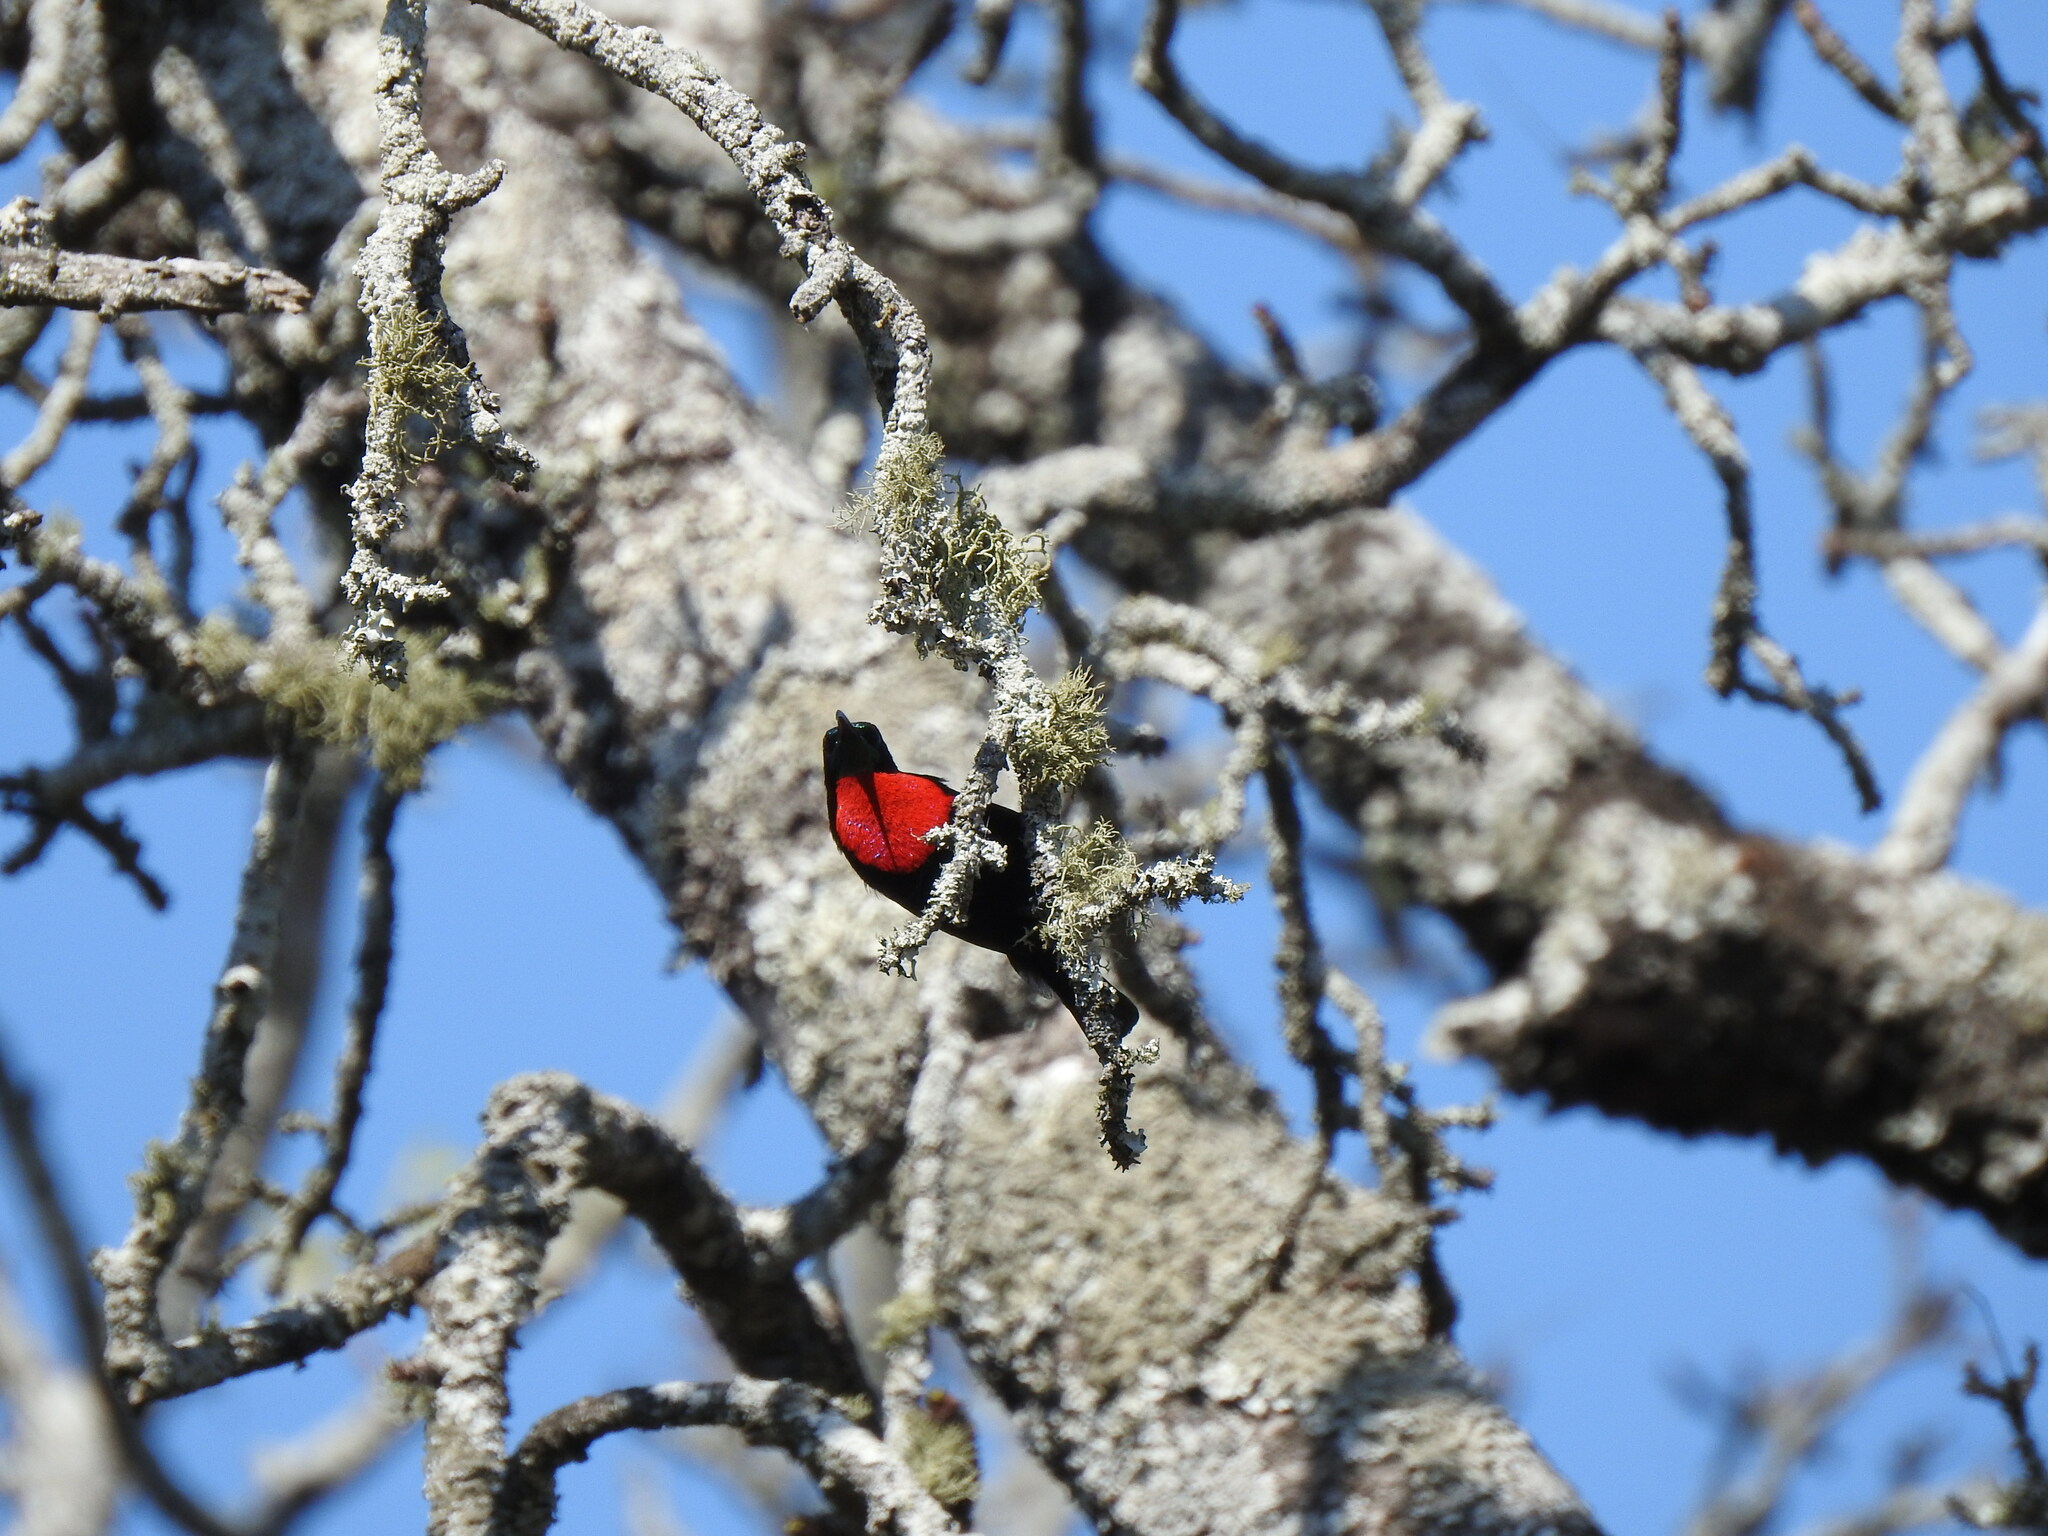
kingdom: Animalia
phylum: Chordata
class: Aves
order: Passeriformes
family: Nectariniidae
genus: Chalcomitra
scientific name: Chalcomitra senegalensis
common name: Scarlet-chested sunbird
